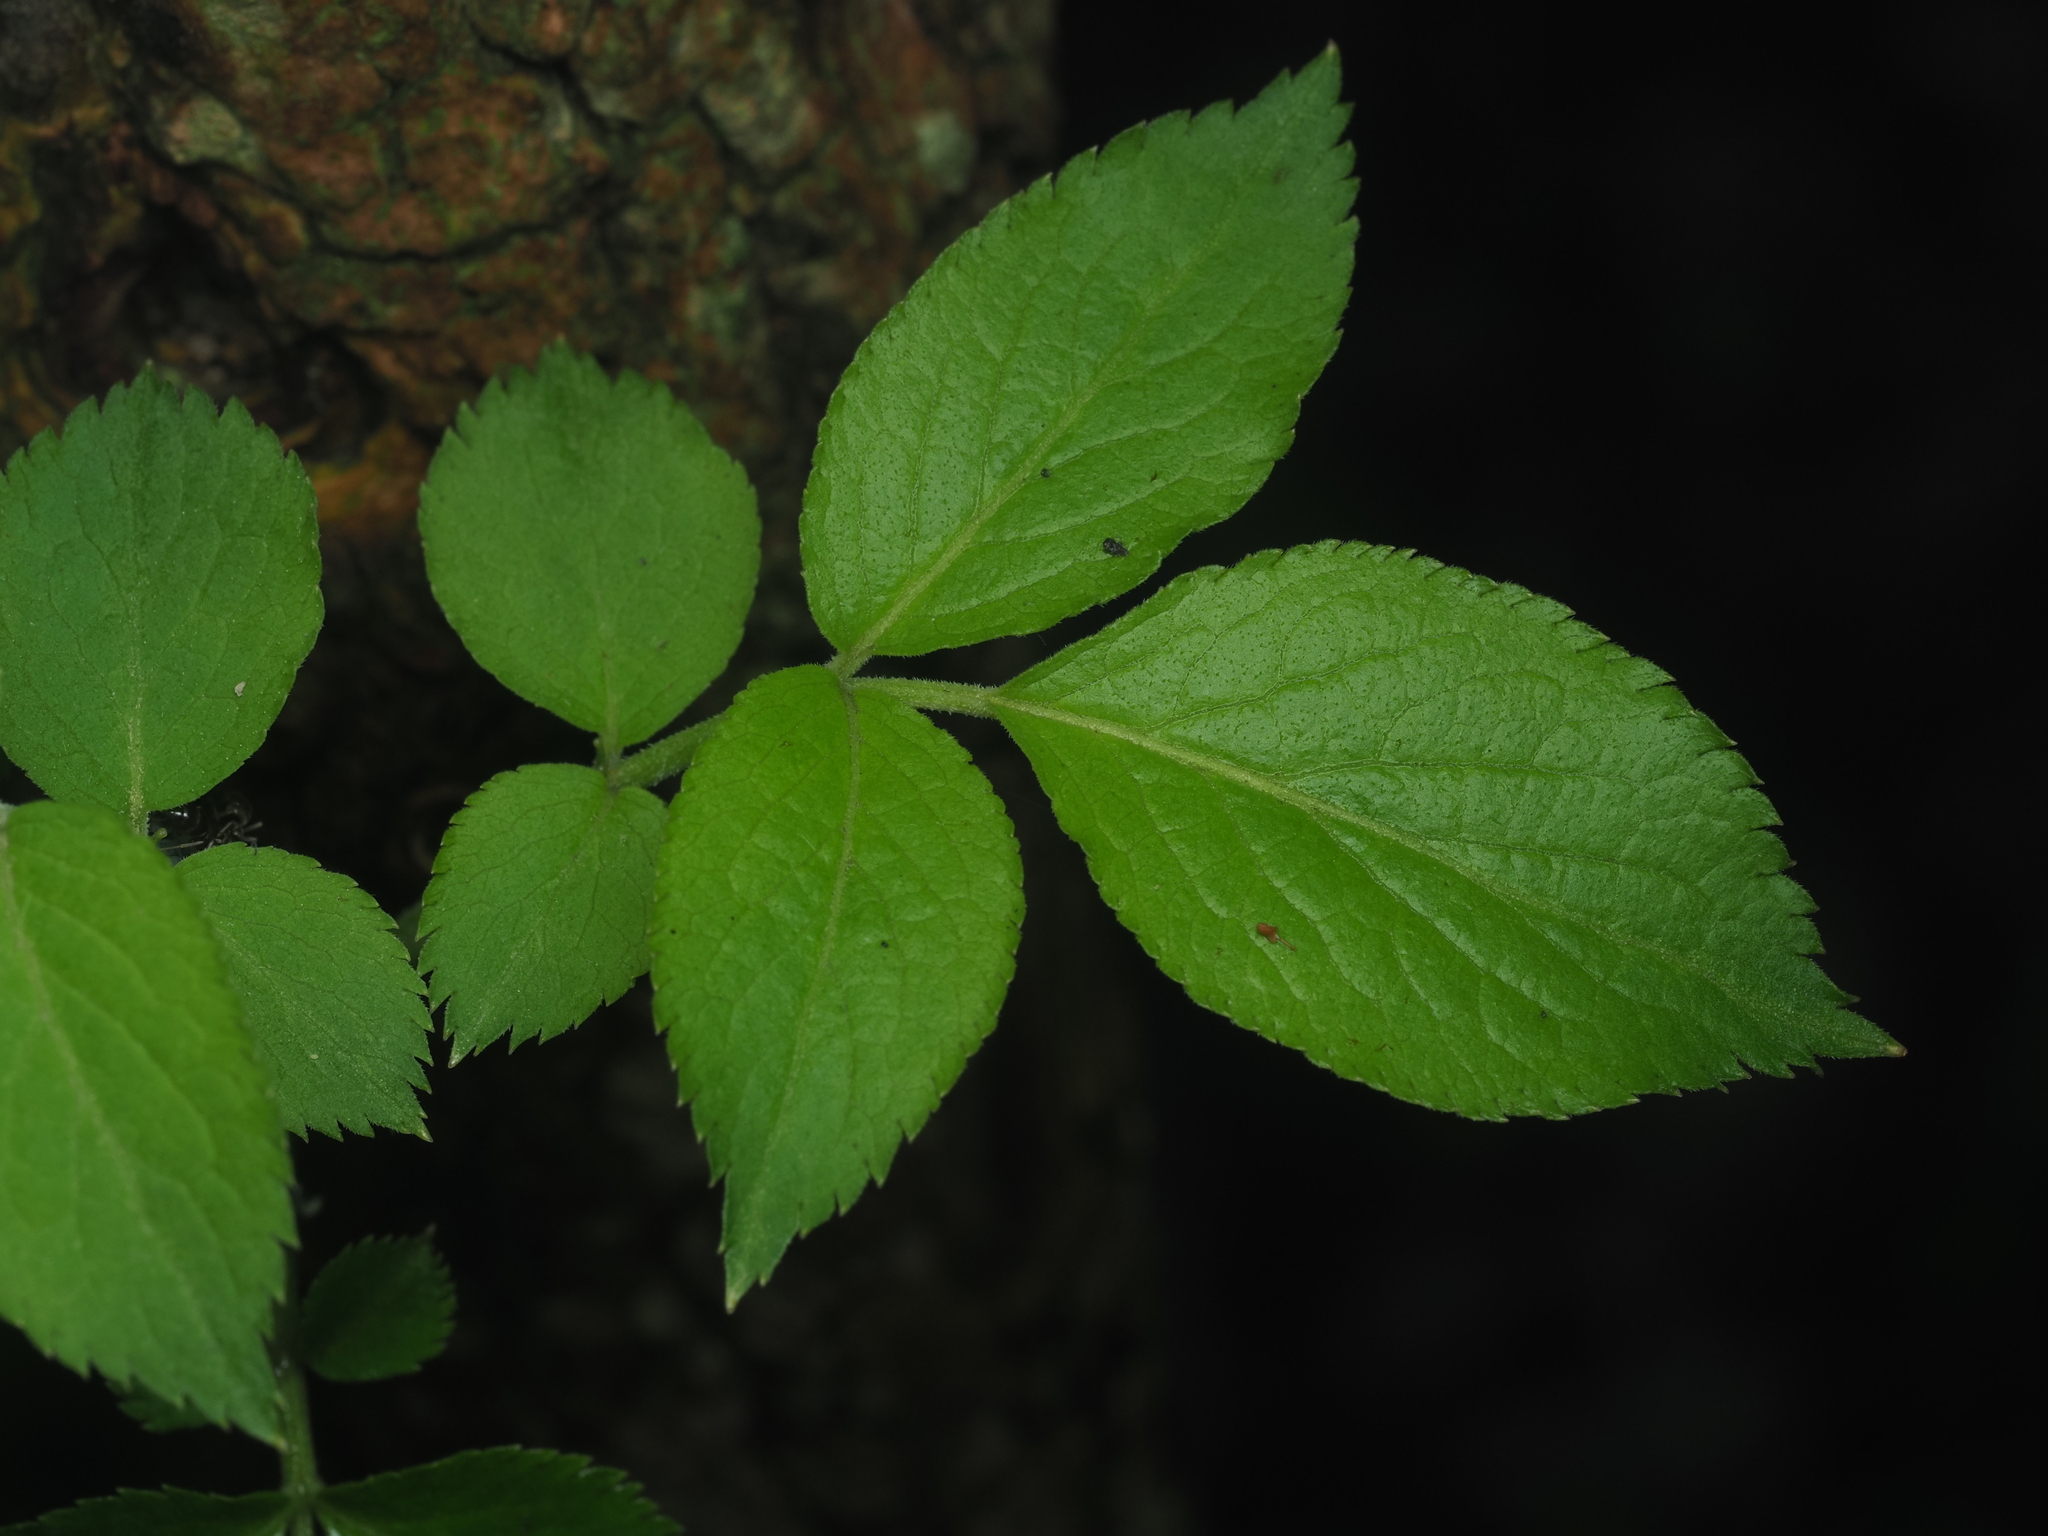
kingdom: Plantae
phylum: Tracheophyta
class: Magnoliopsida
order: Dipsacales
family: Viburnaceae
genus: Sambucus
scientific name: Sambucus nigra
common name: Elder
